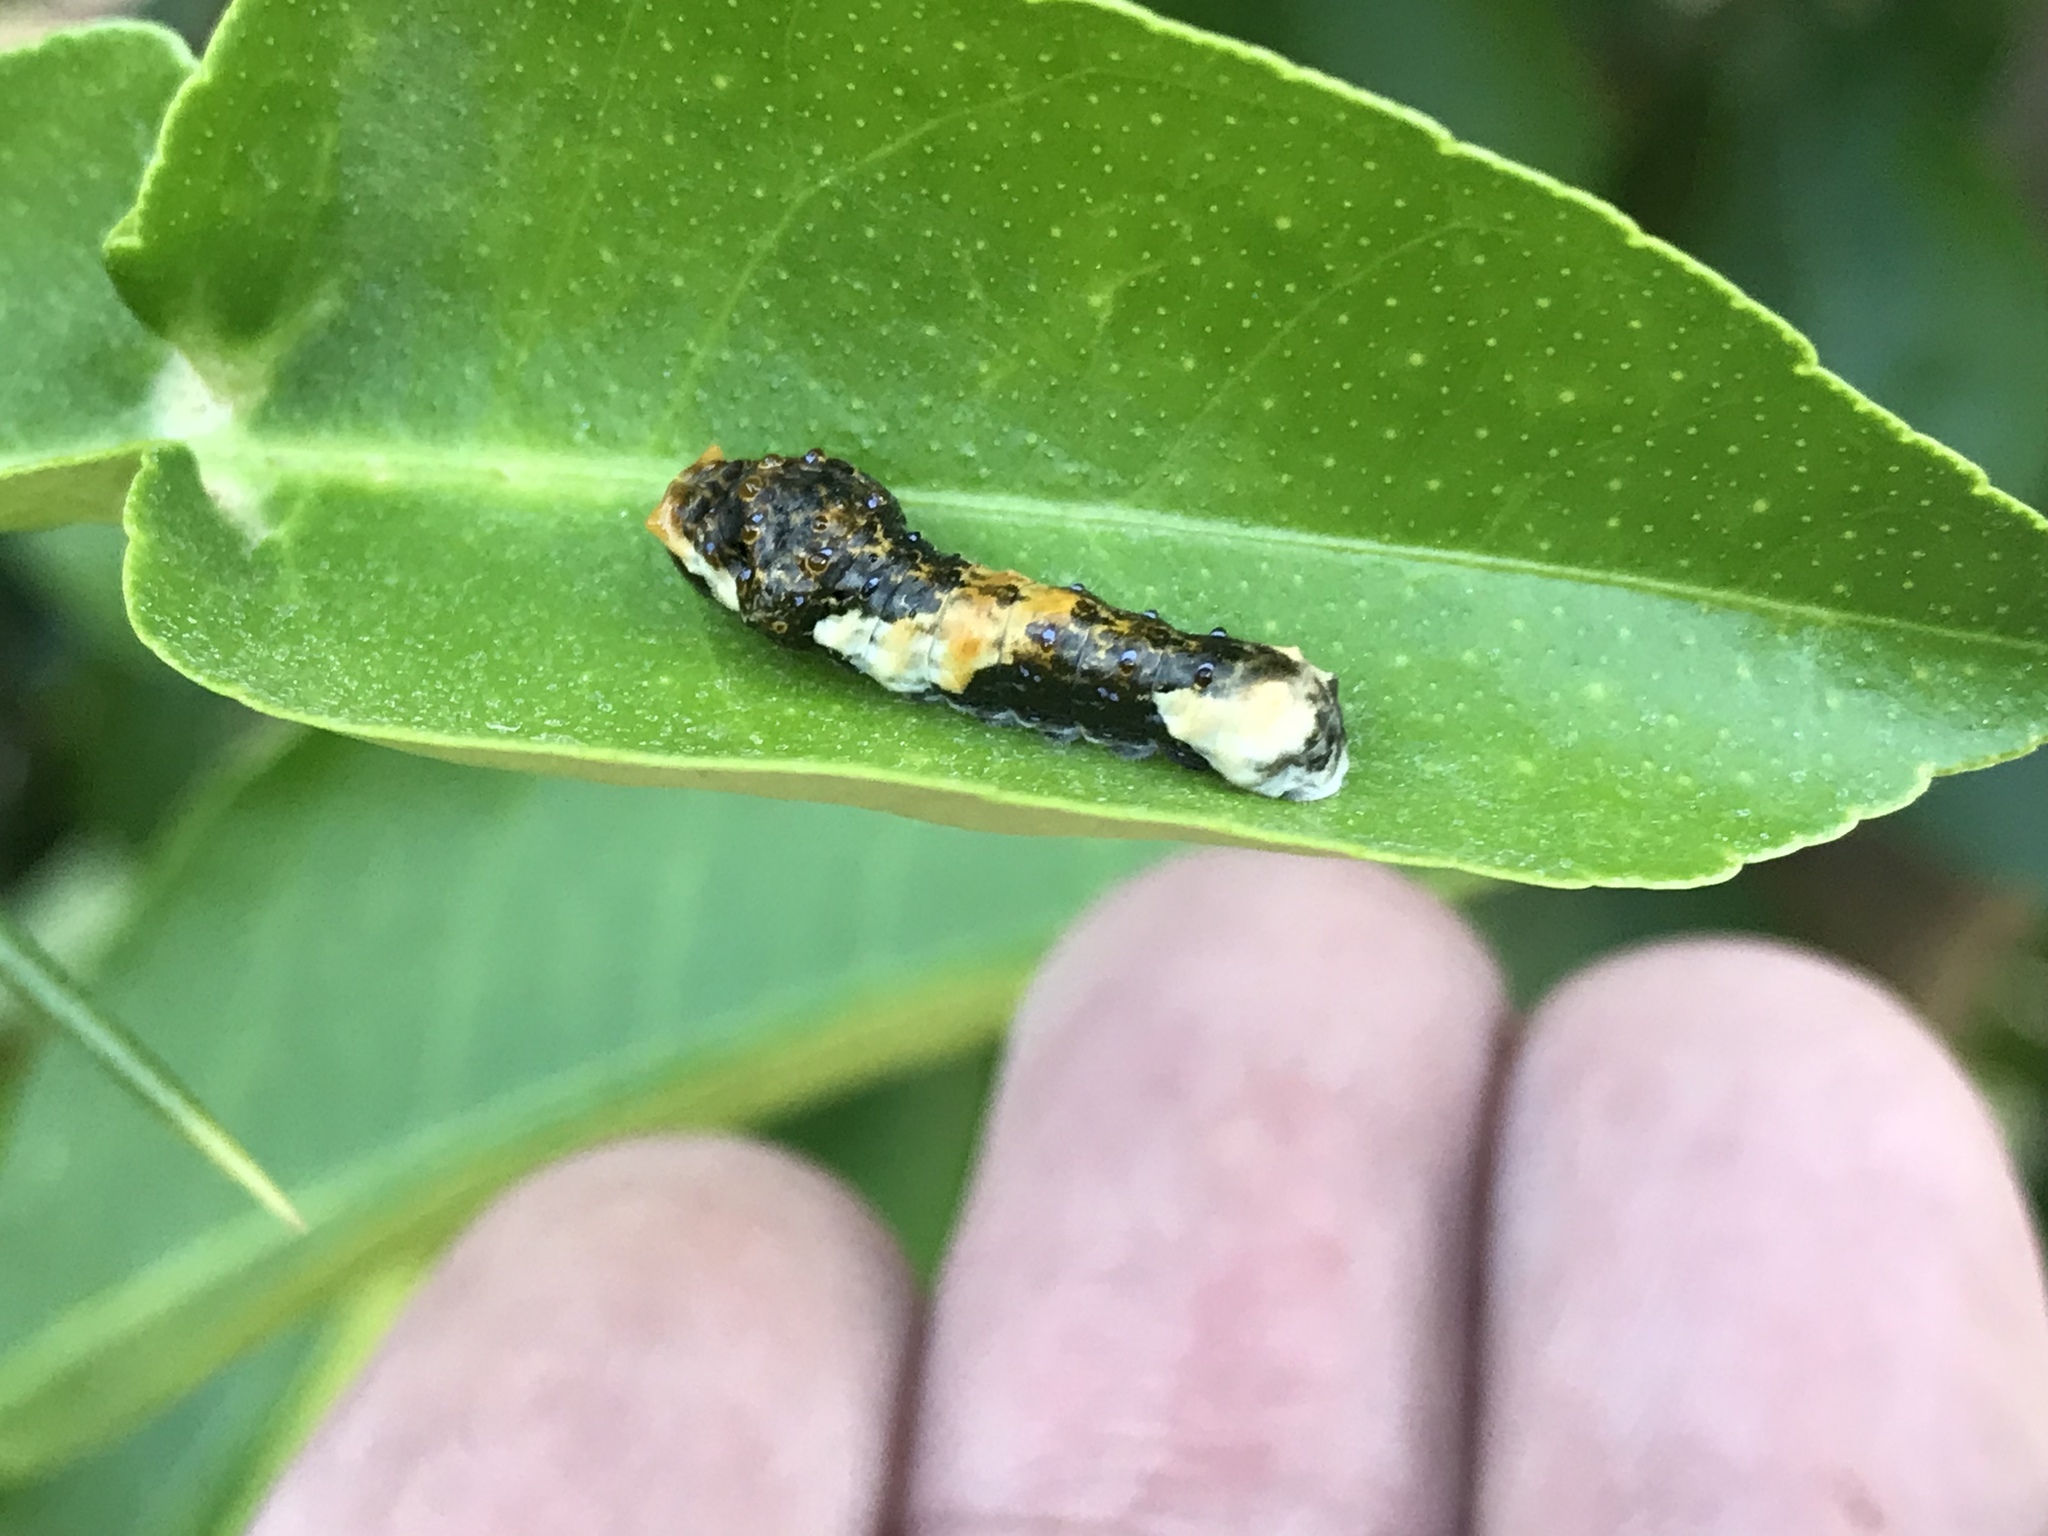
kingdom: Animalia
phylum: Arthropoda
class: Insecta
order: Lepidoptera
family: Papilionidae
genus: Papilio
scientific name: Papilio rumiko
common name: Western giant swallowtail
